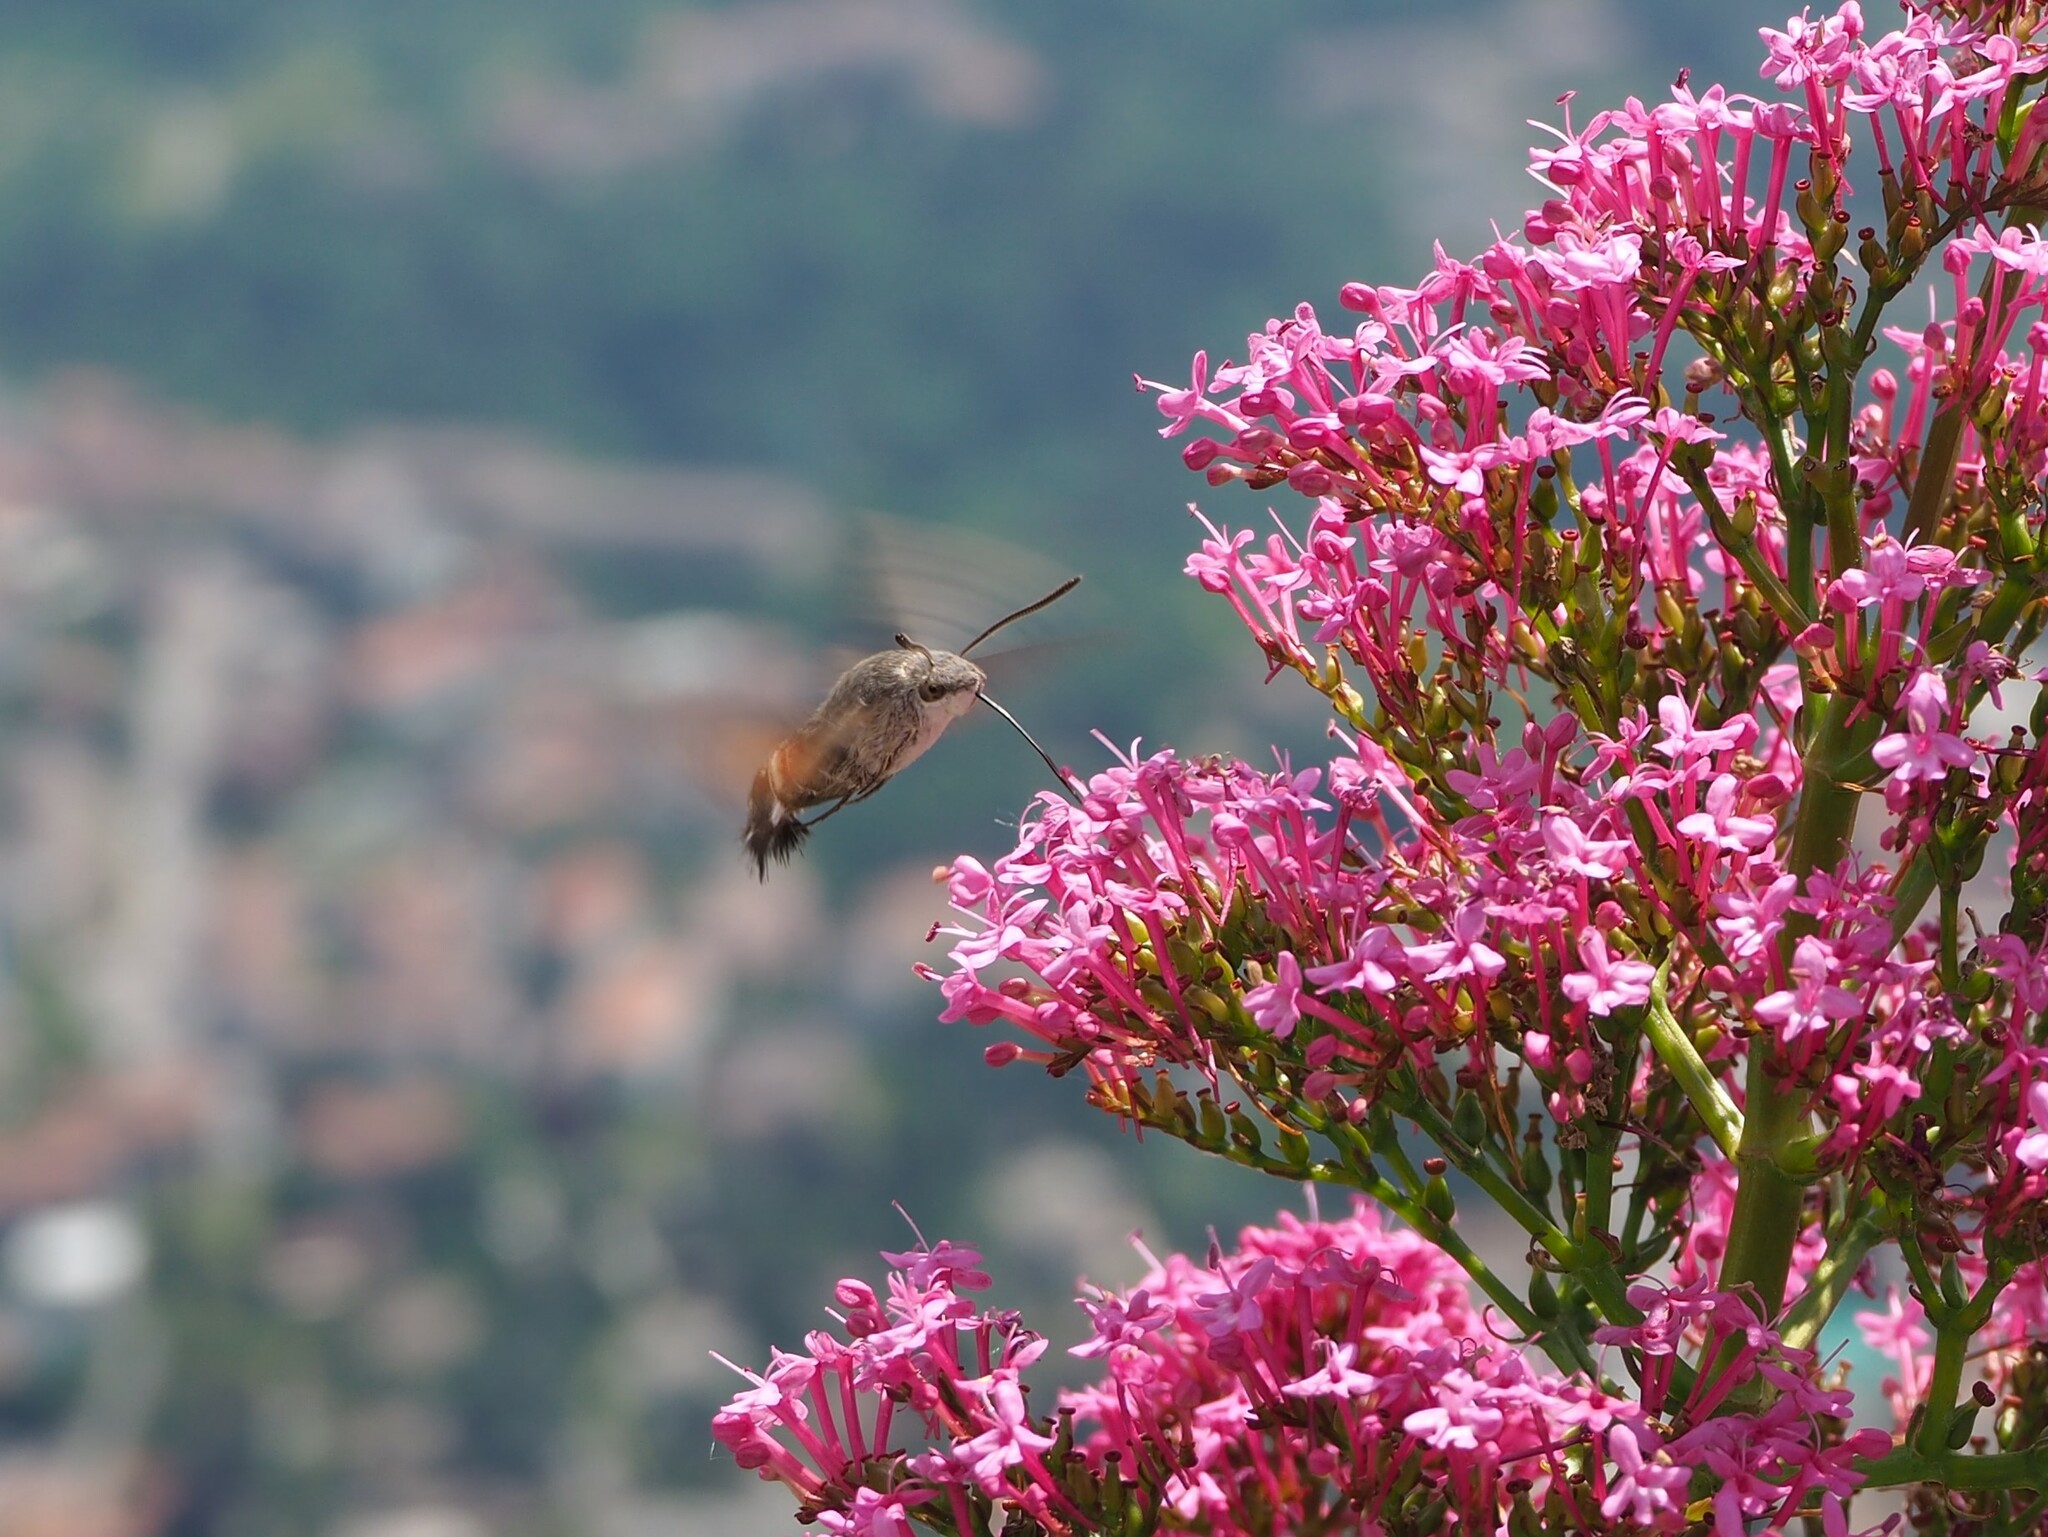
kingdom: Animalia
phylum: Arthropoda
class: Insecta
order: Lepidoptera
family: Sphingidae
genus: Macroglossum
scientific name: Macroglossum stellatarum
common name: Humming-bird hawk-moth
